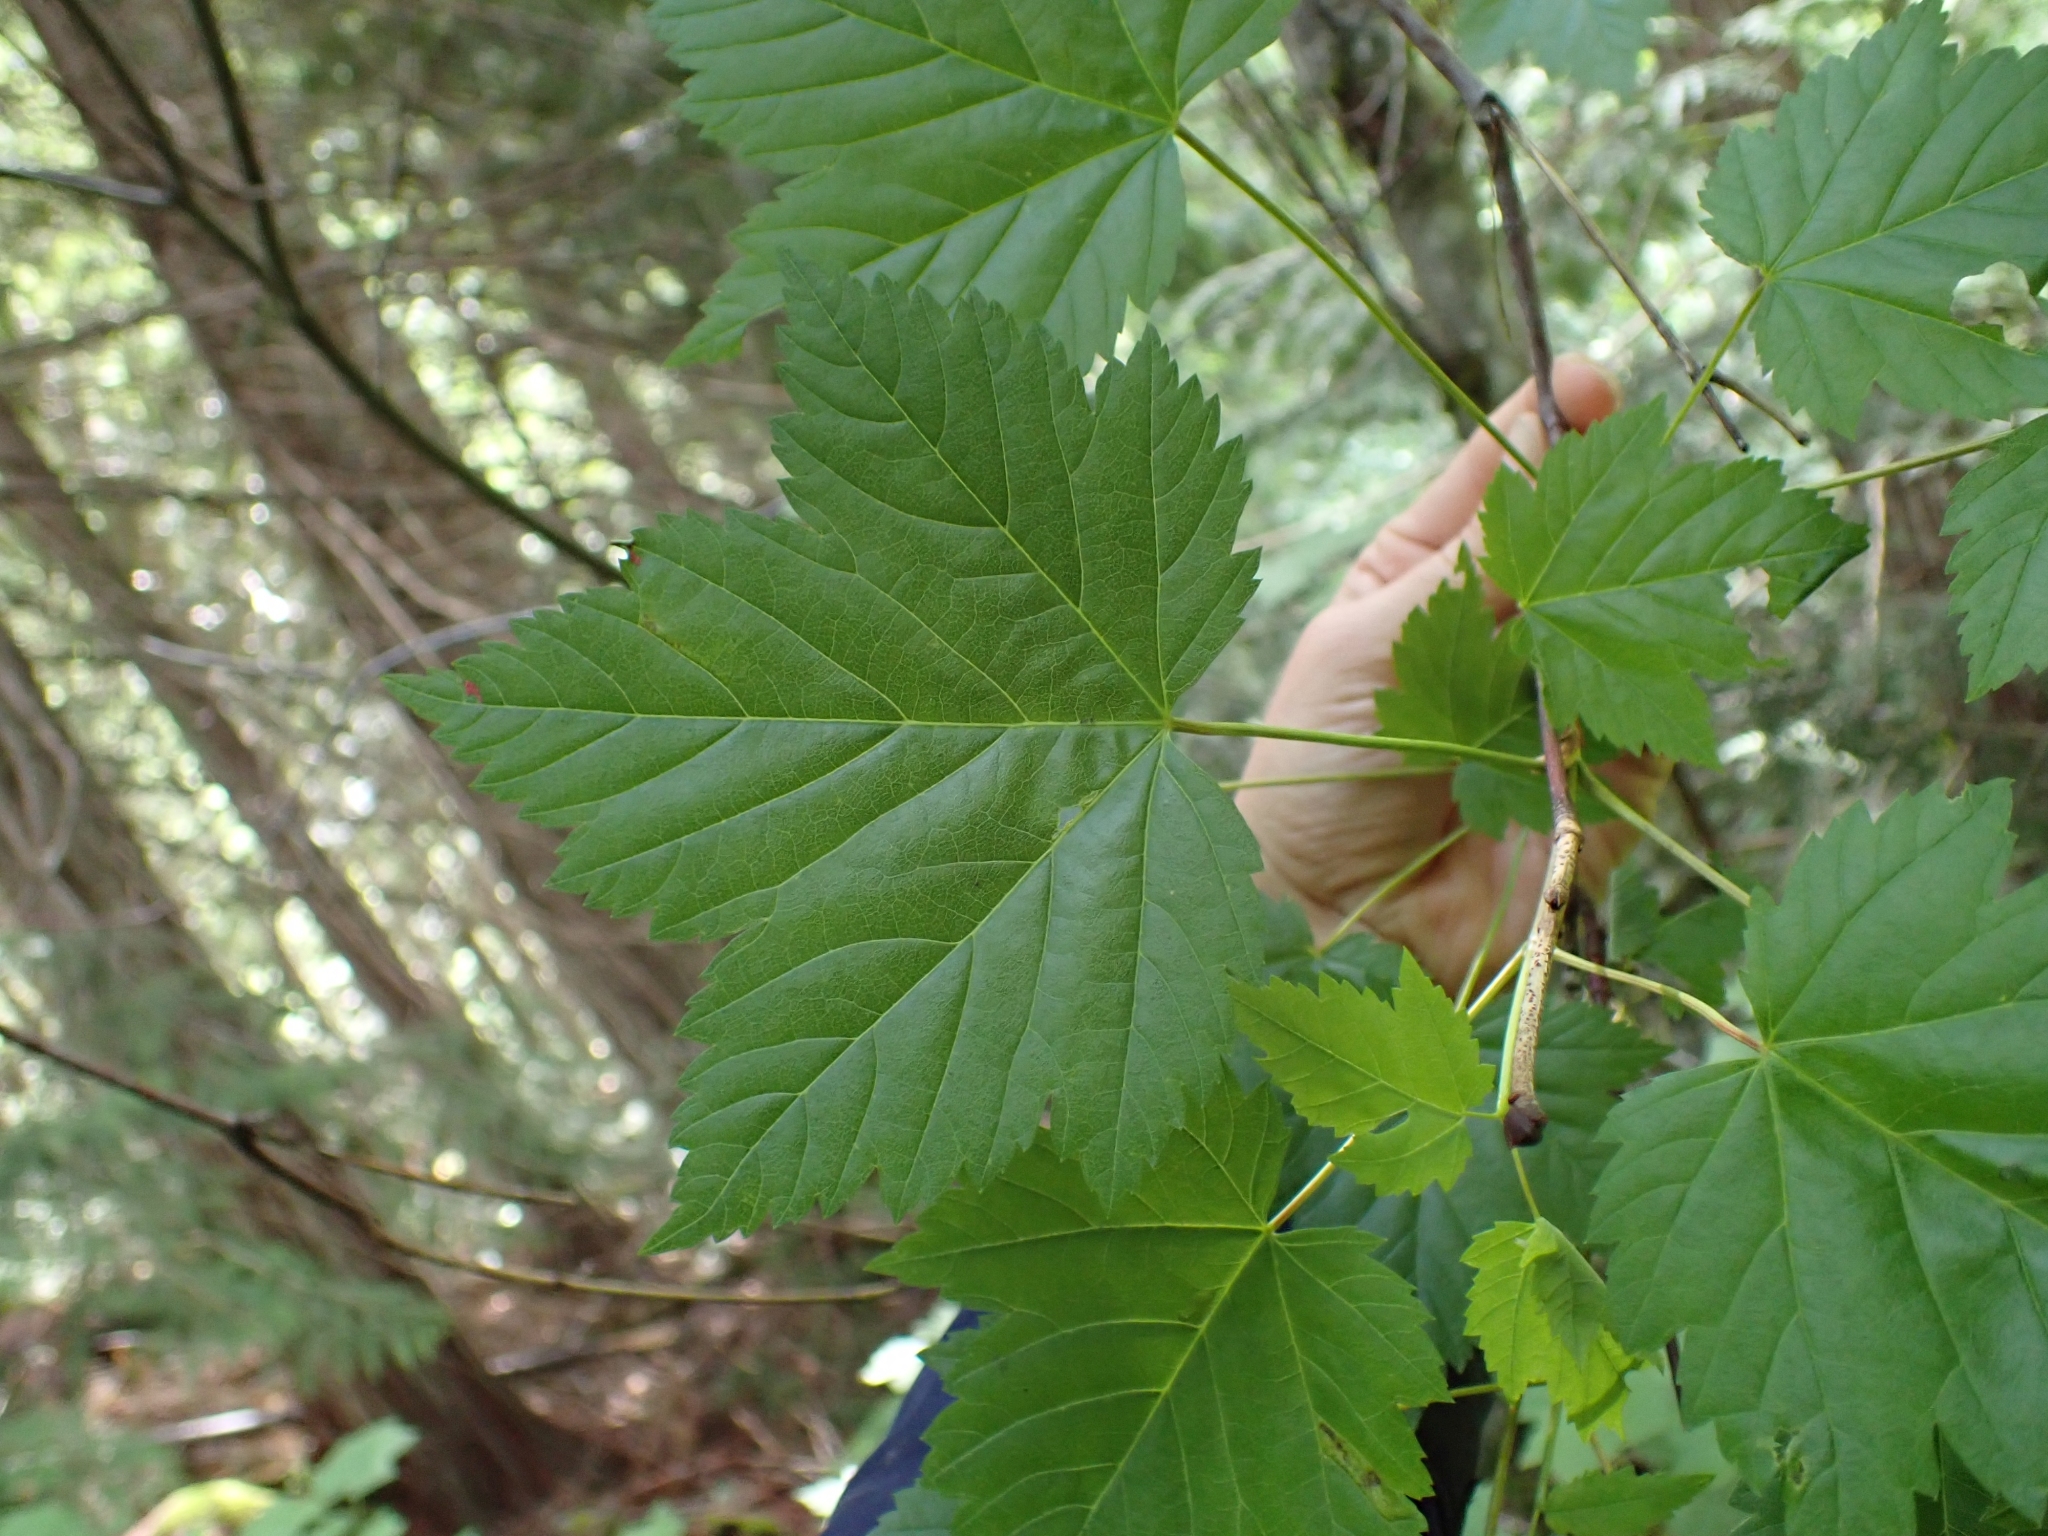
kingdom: Plantae
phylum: Tracheophyta
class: Magnoliopsida
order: Sapindales
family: Sapindaceae
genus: Acer
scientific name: Acer glabrum
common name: Rocky mountain maple
